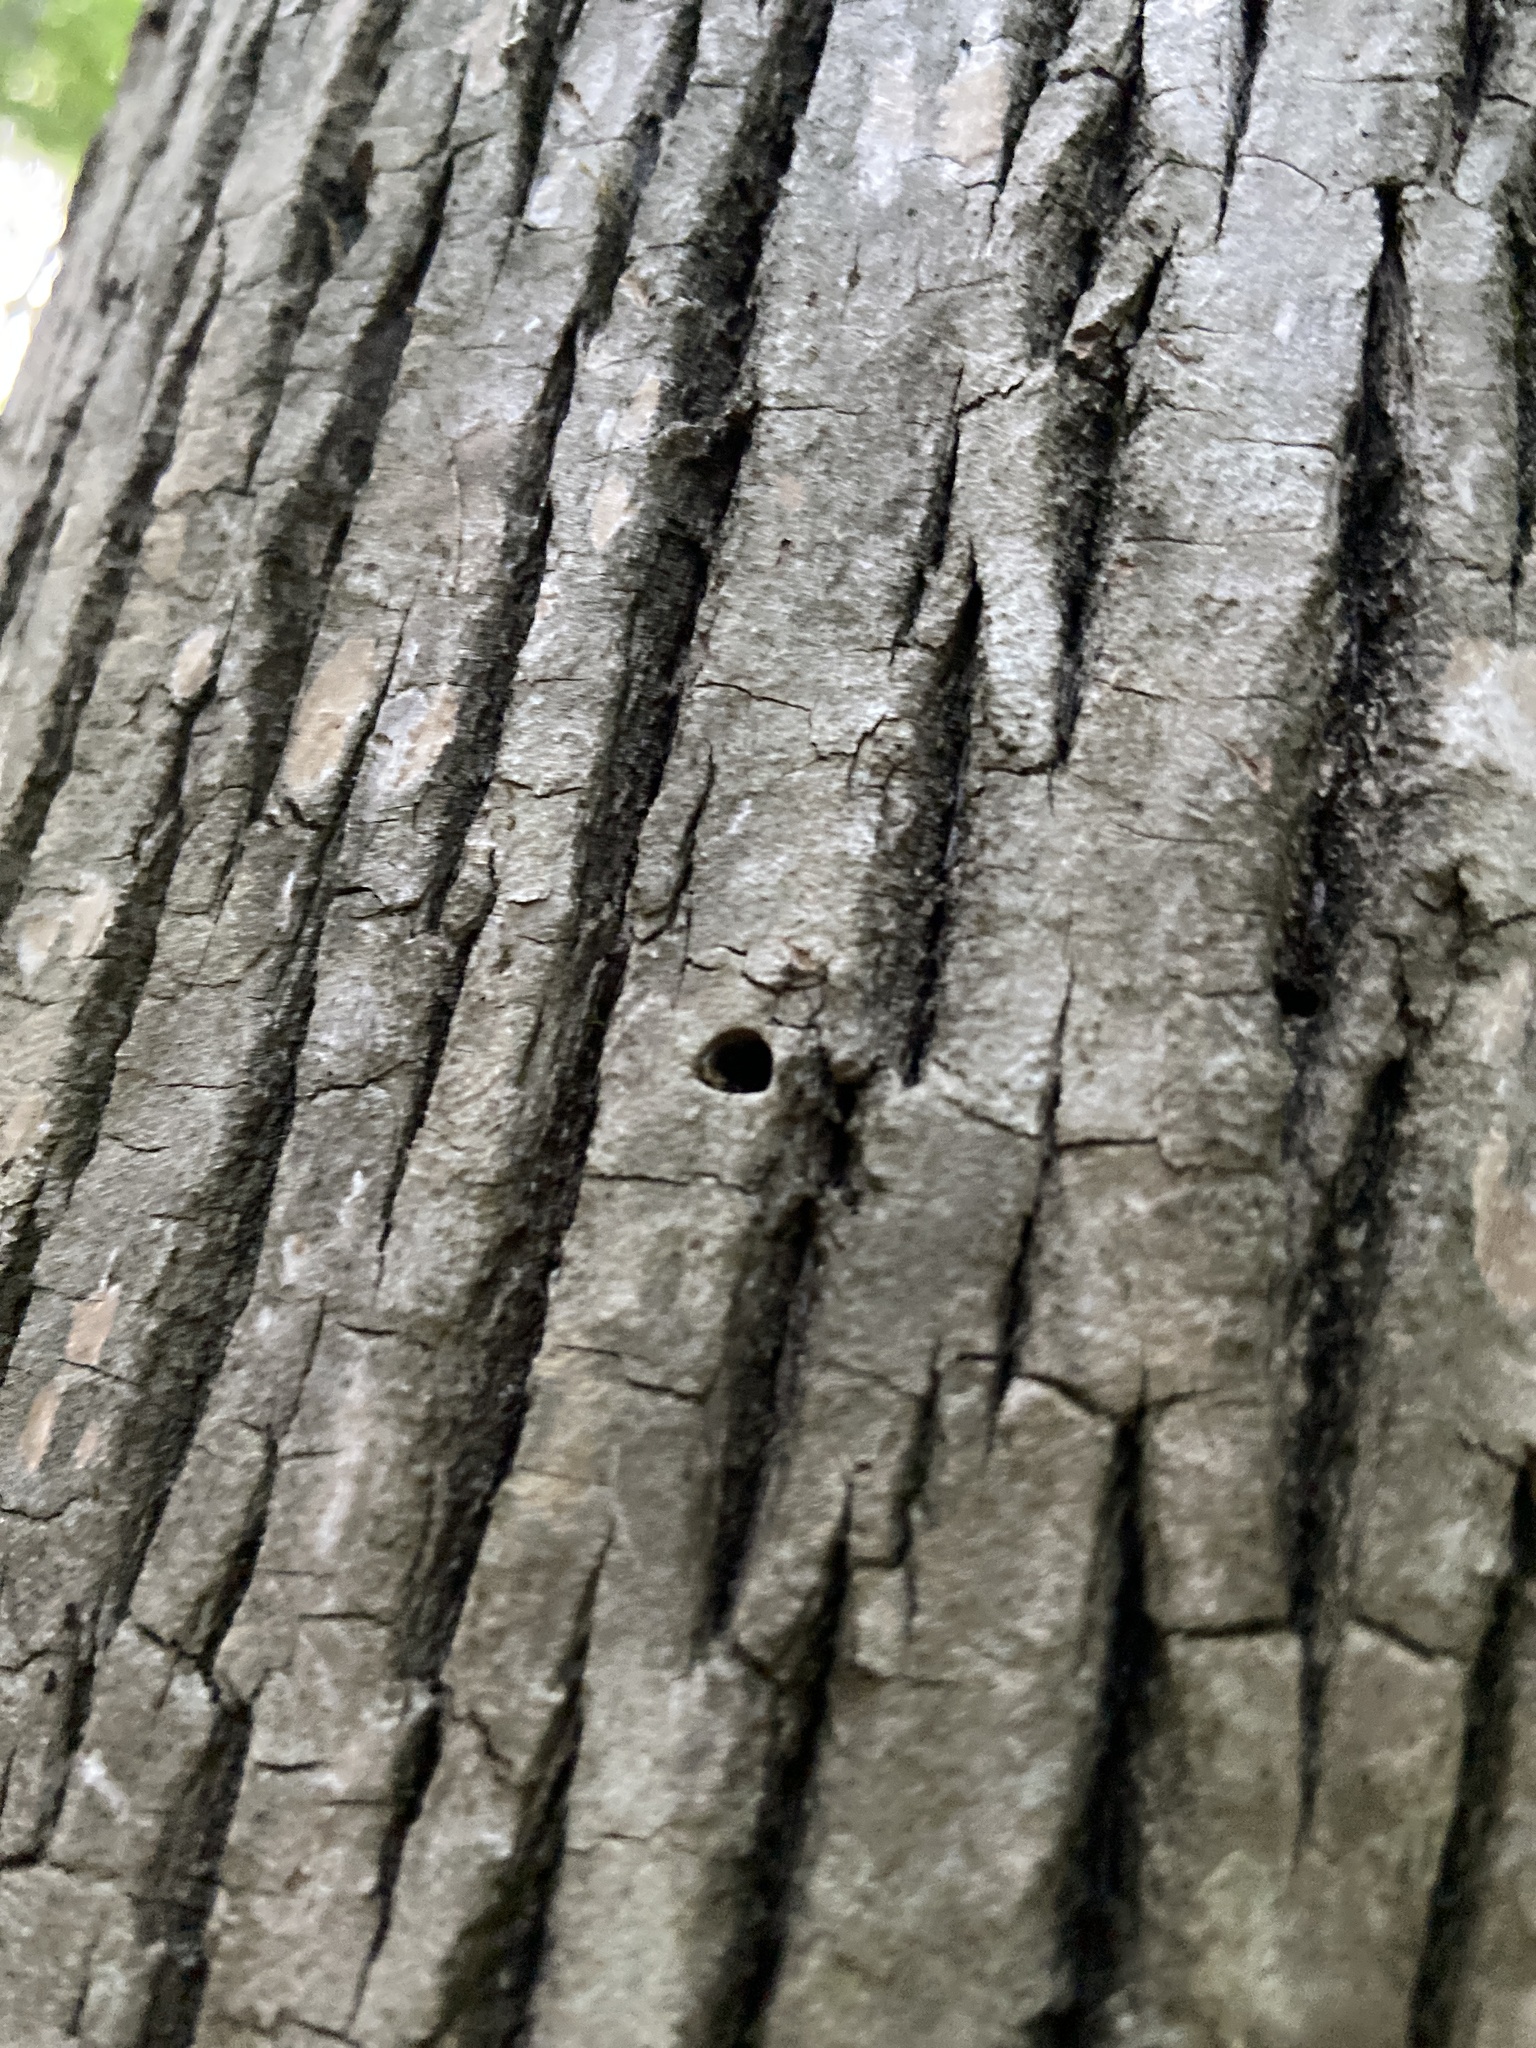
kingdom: Animalia
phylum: Arthropoda
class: Insecta
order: Coleoptera
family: Buprestidae
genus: Agrilus
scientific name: Agrilus planipennis
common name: Emerald ash borer
